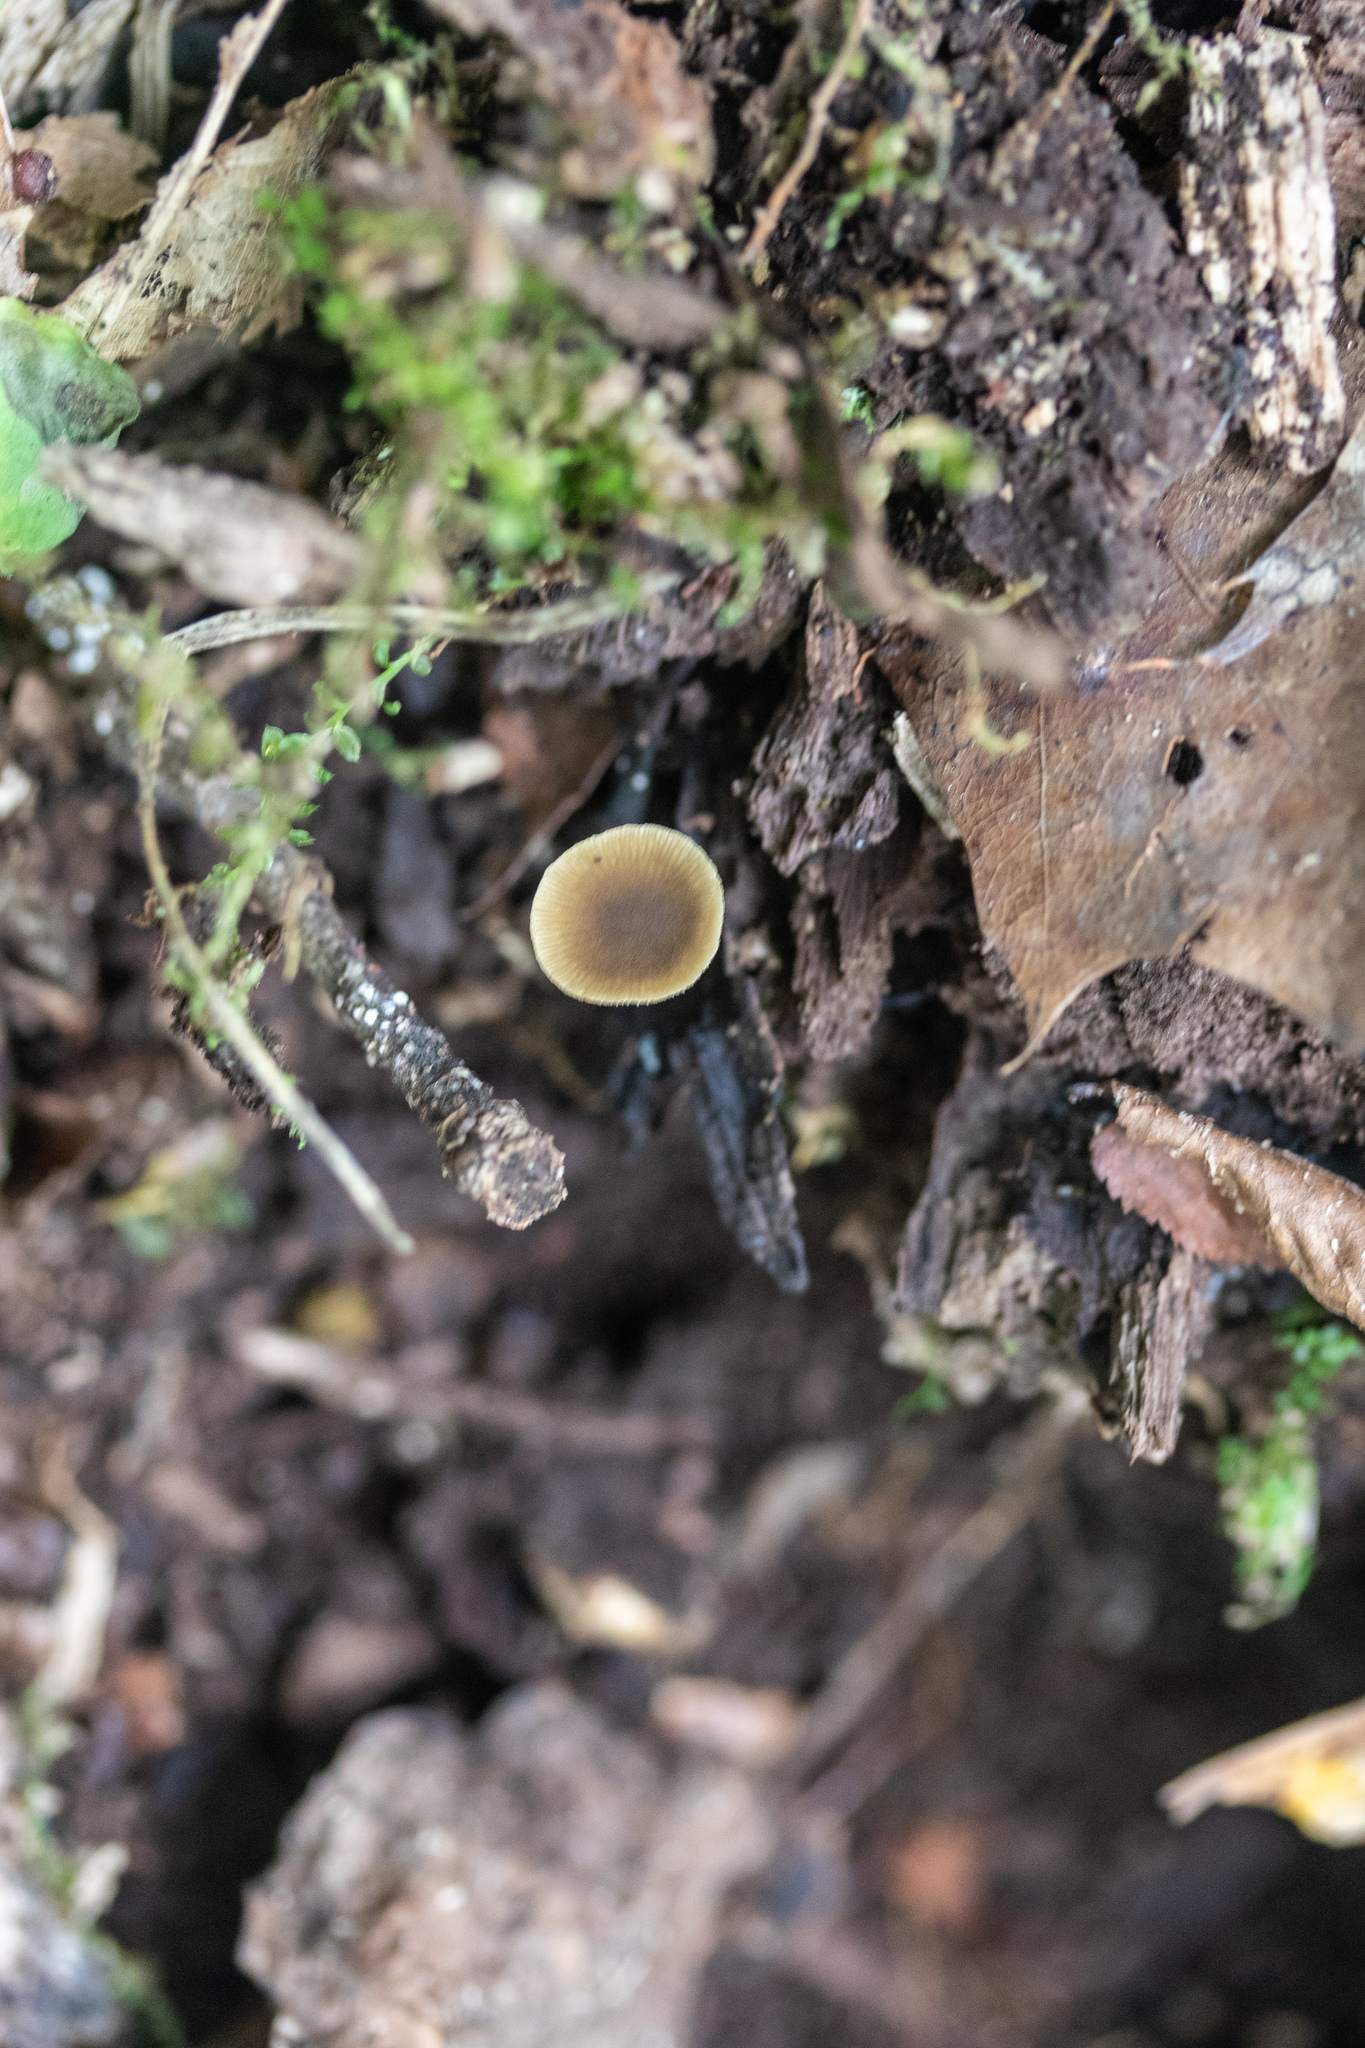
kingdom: Fungi
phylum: Basidiomycota
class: Agaricomycetes
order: Agaricales
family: Crepidotaceae
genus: Simocybe
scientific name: Simocybe centunculus
